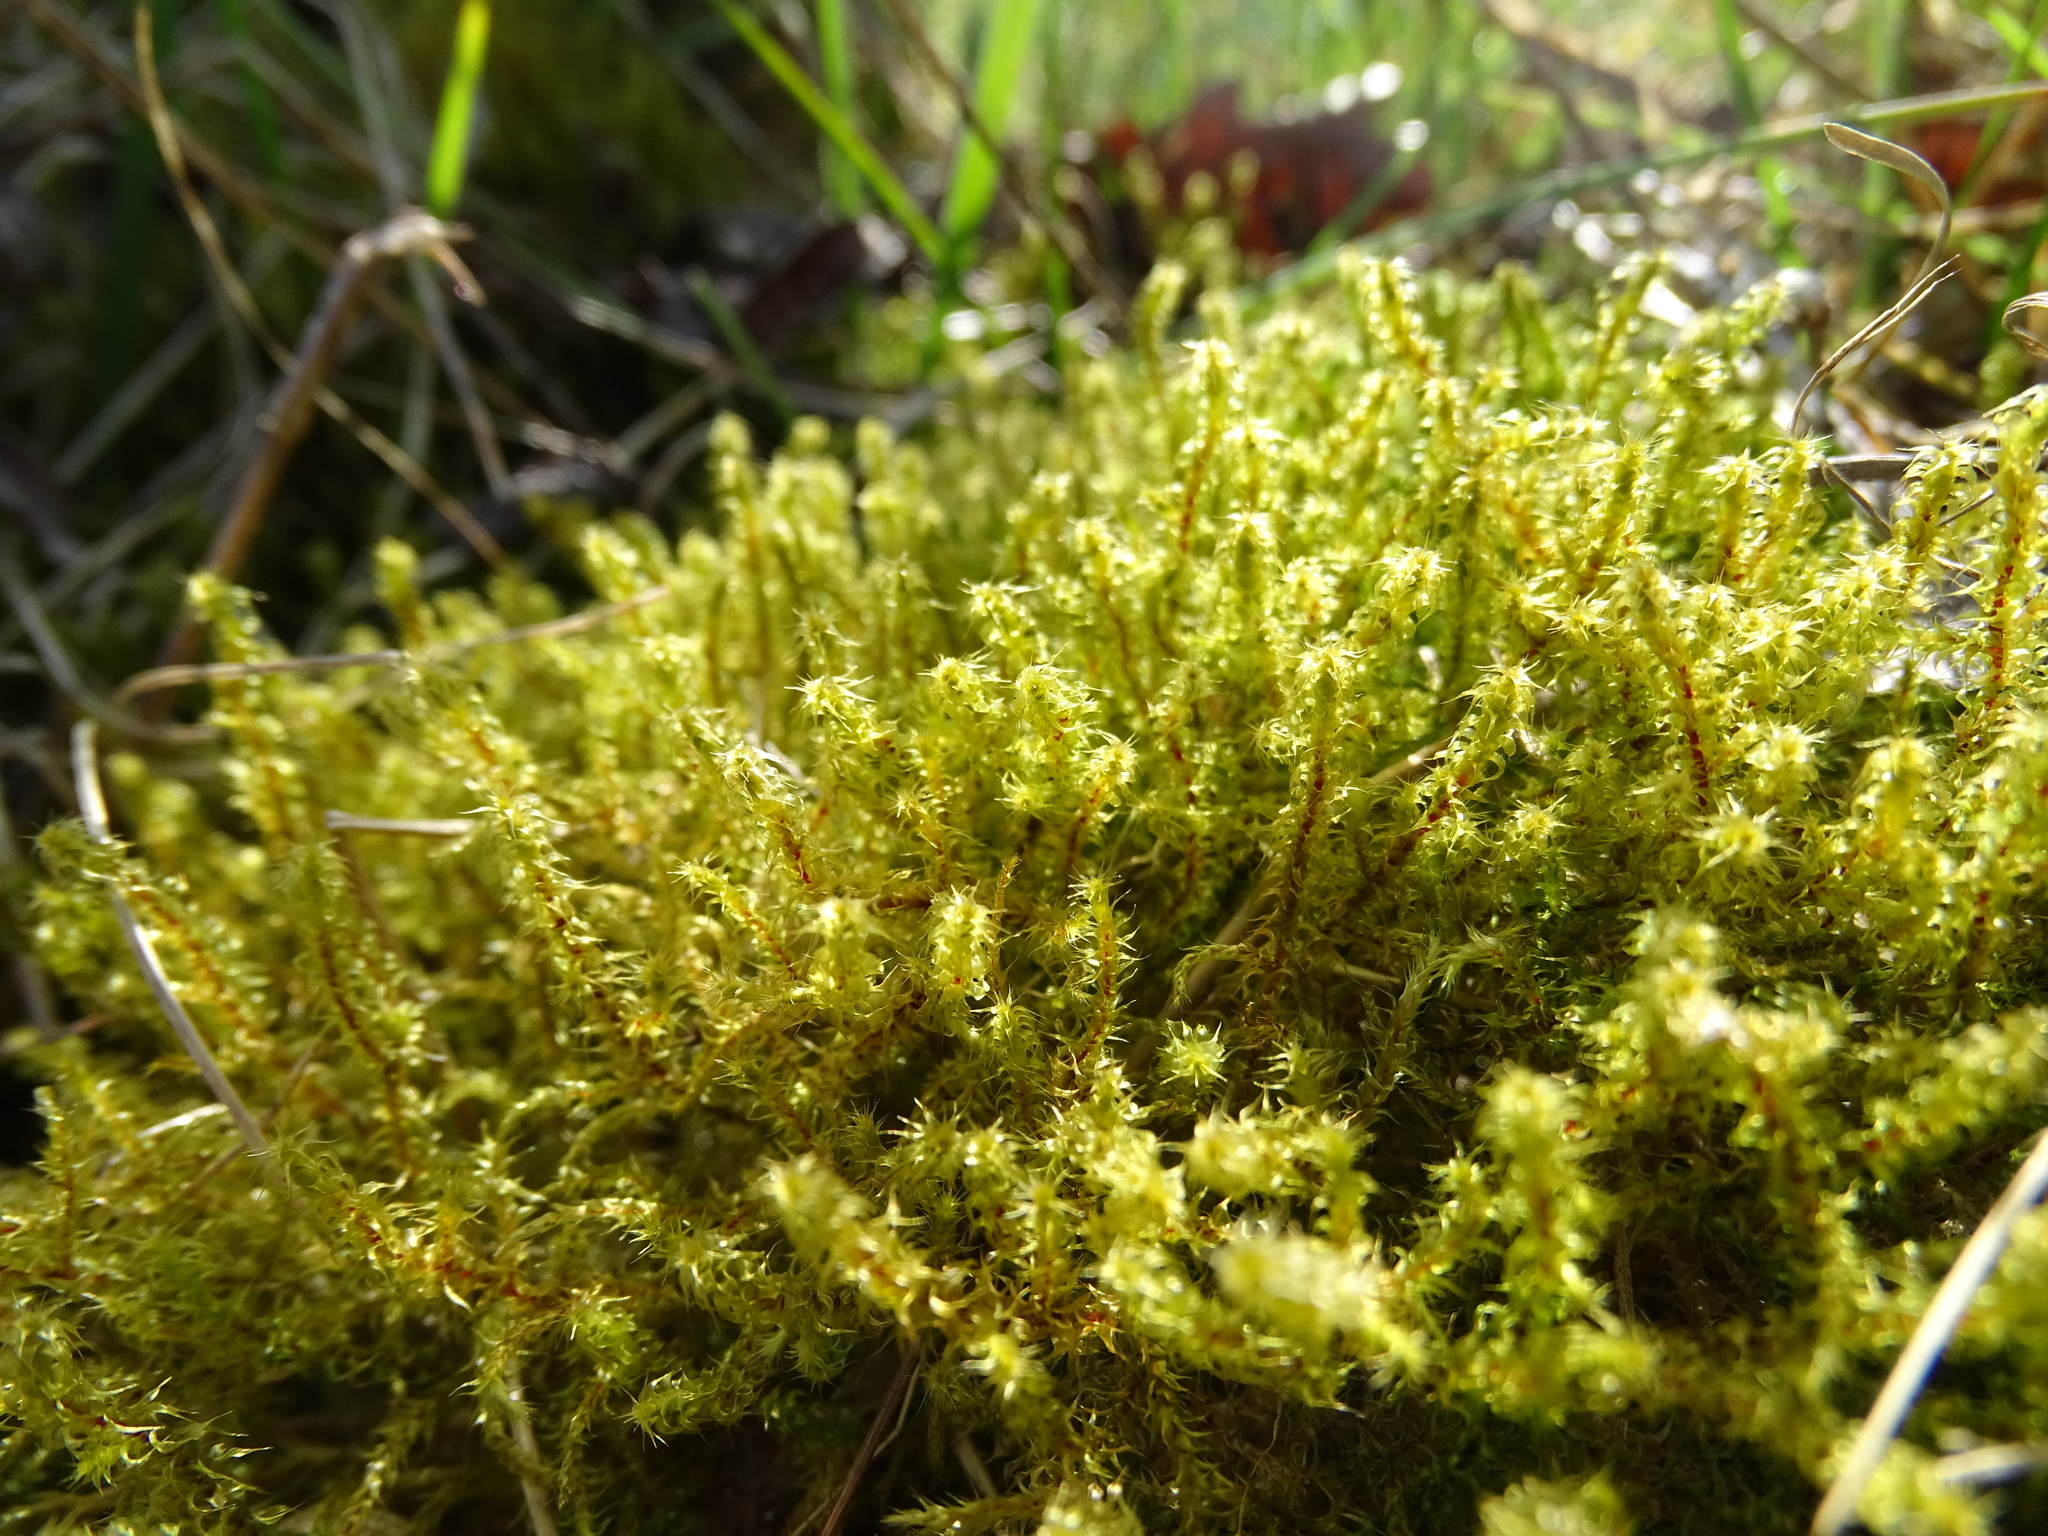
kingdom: Plantae
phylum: Bryophyta
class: Bryopsida
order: Hypnales
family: Hylocomiaceae
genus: Rhytidiadelphus
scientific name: Rhytidiadelphus squarrosus
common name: Springy turf-moss
